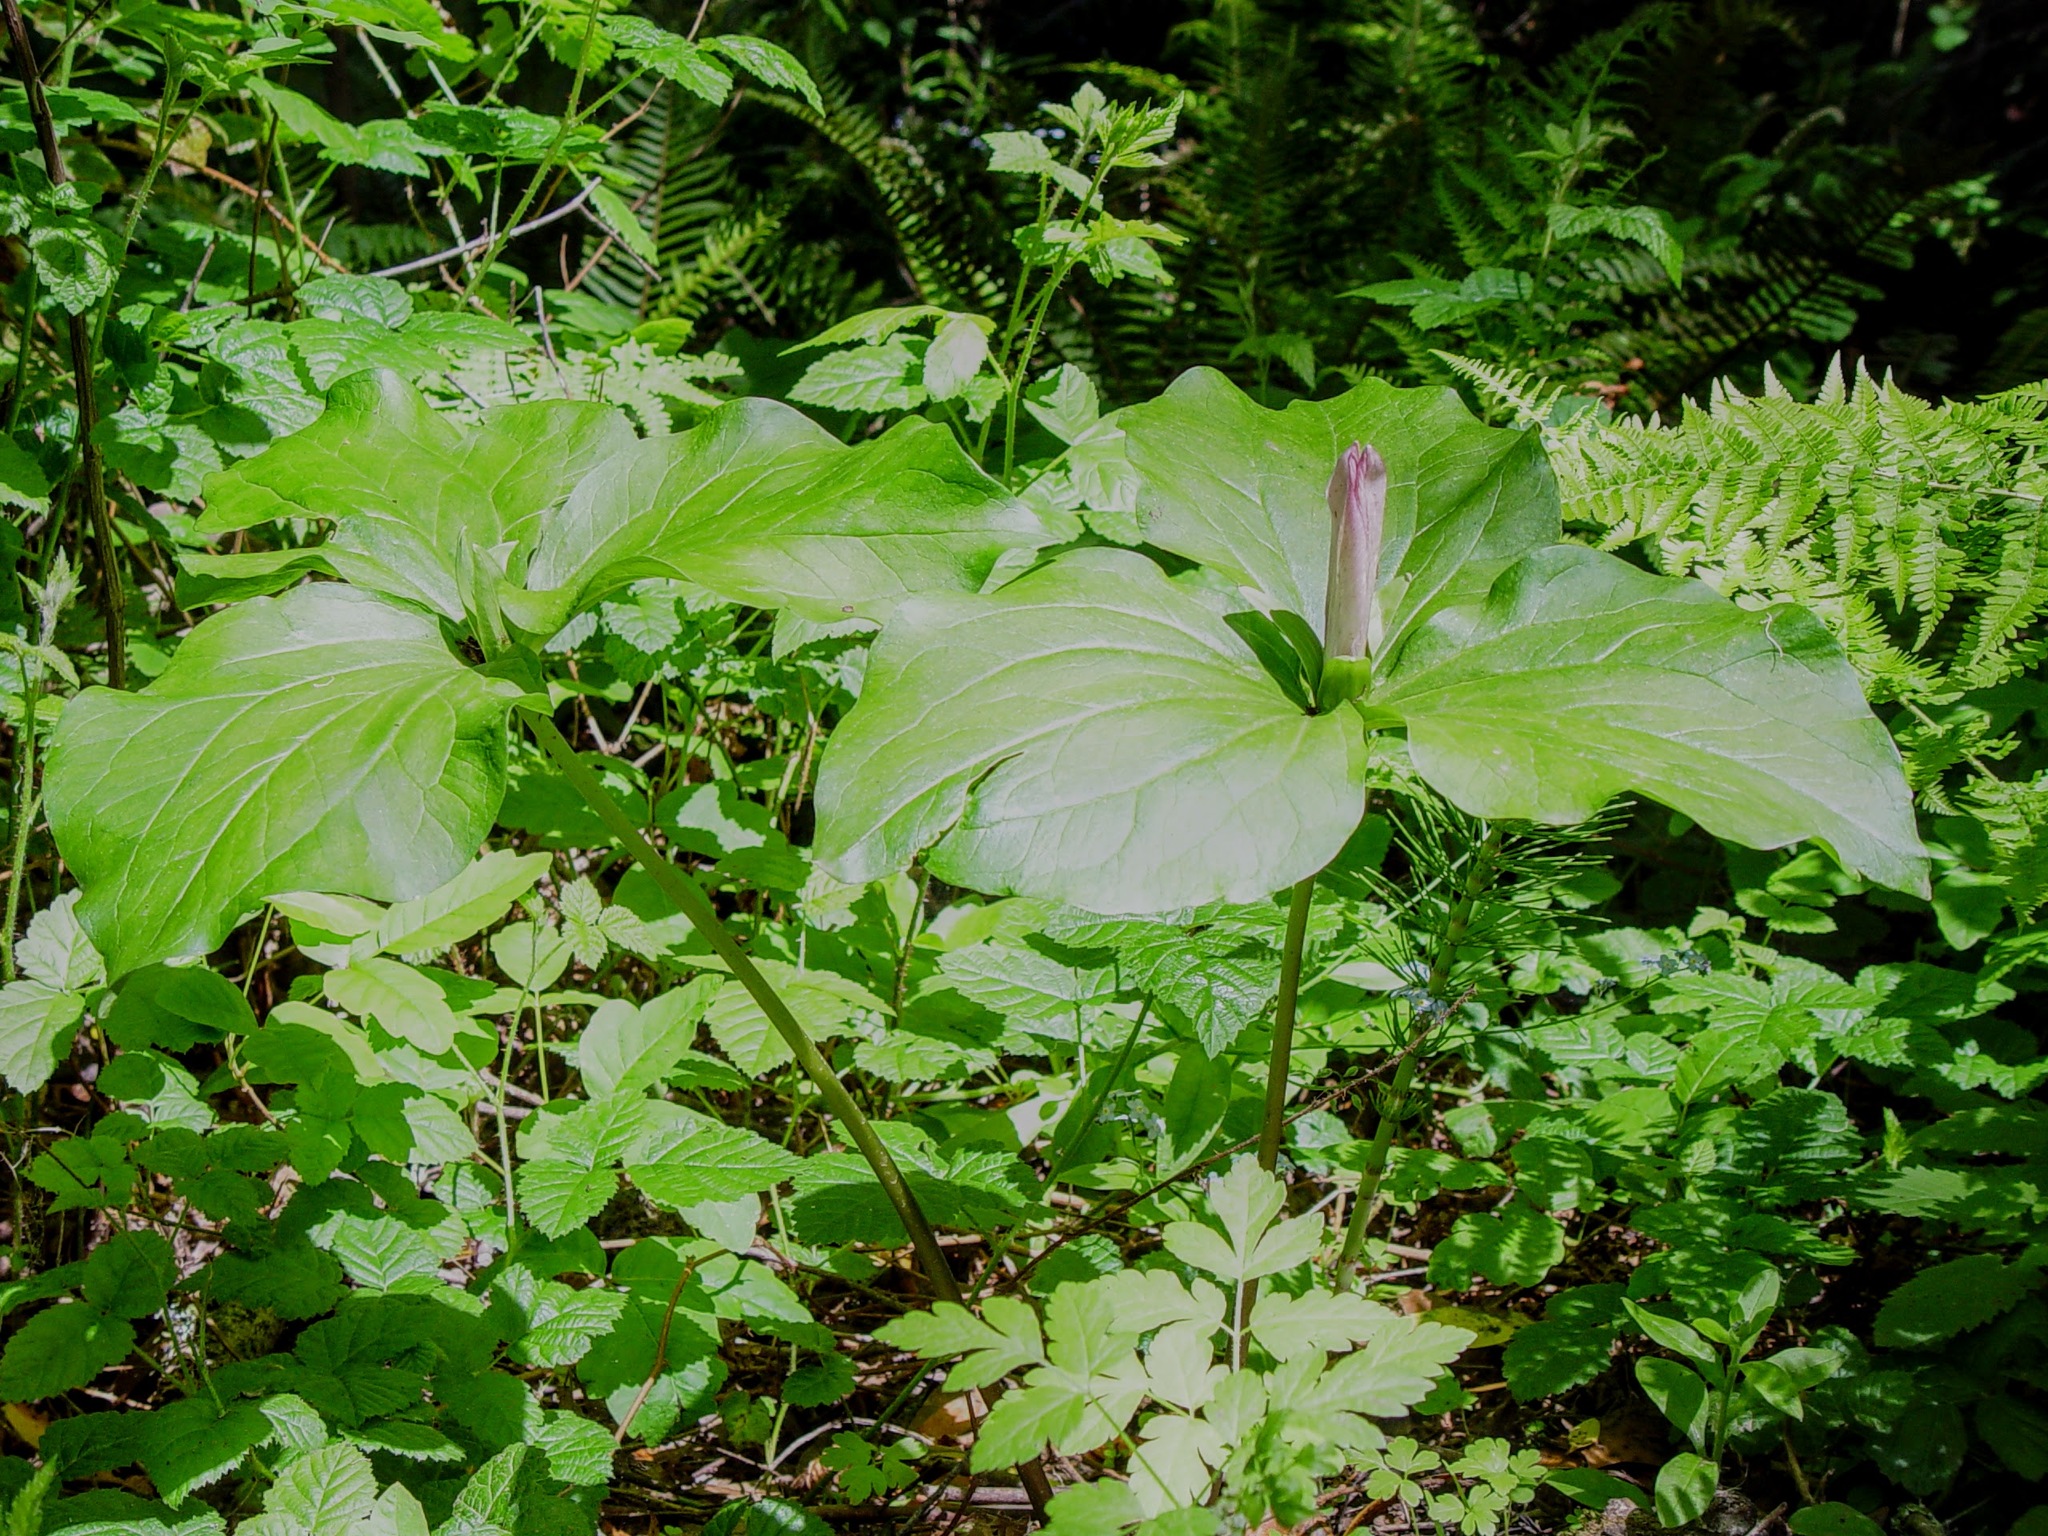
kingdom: Plantae
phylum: Tracheophyta
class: Liliopsida
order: Liliales
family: Melanthiaceae
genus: Trillium
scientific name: Trillium chloropetalum
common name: Giant trillium
